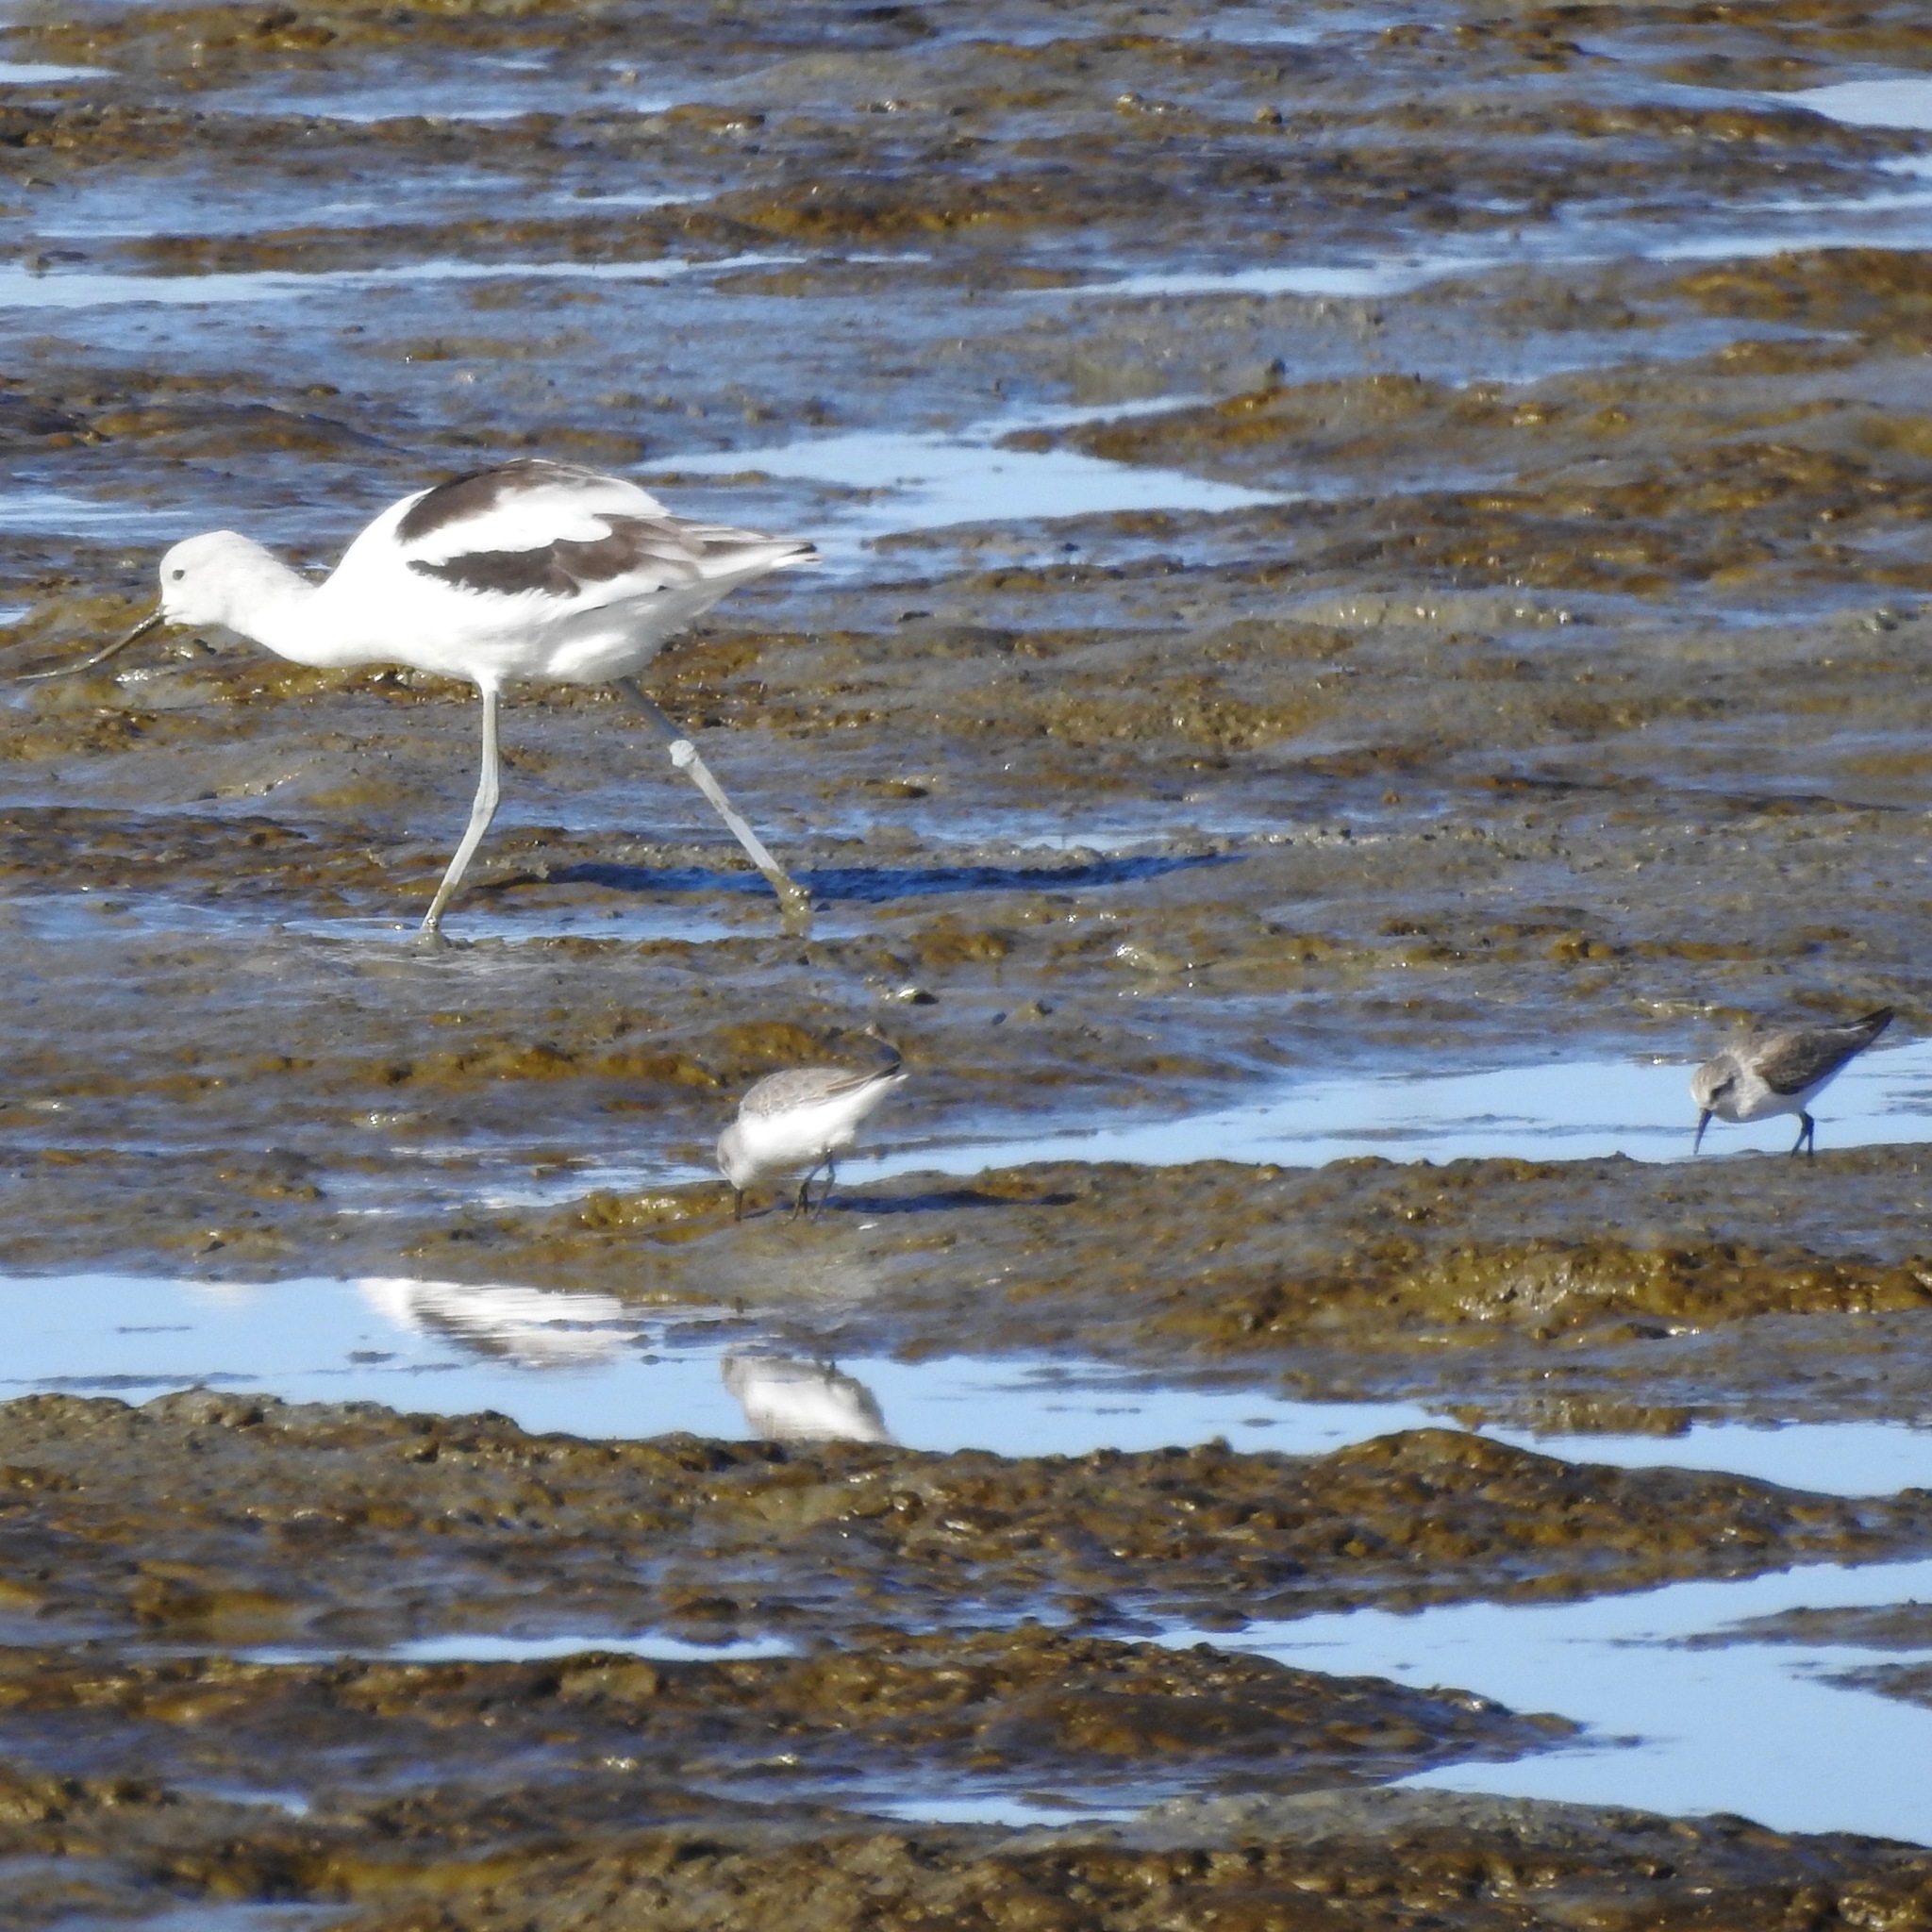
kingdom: Animalia
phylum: Chordata
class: Aves
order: Charadriiformes
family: Scolopacidae
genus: Calidris
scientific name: Calidris mauri
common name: Western sandpiper
